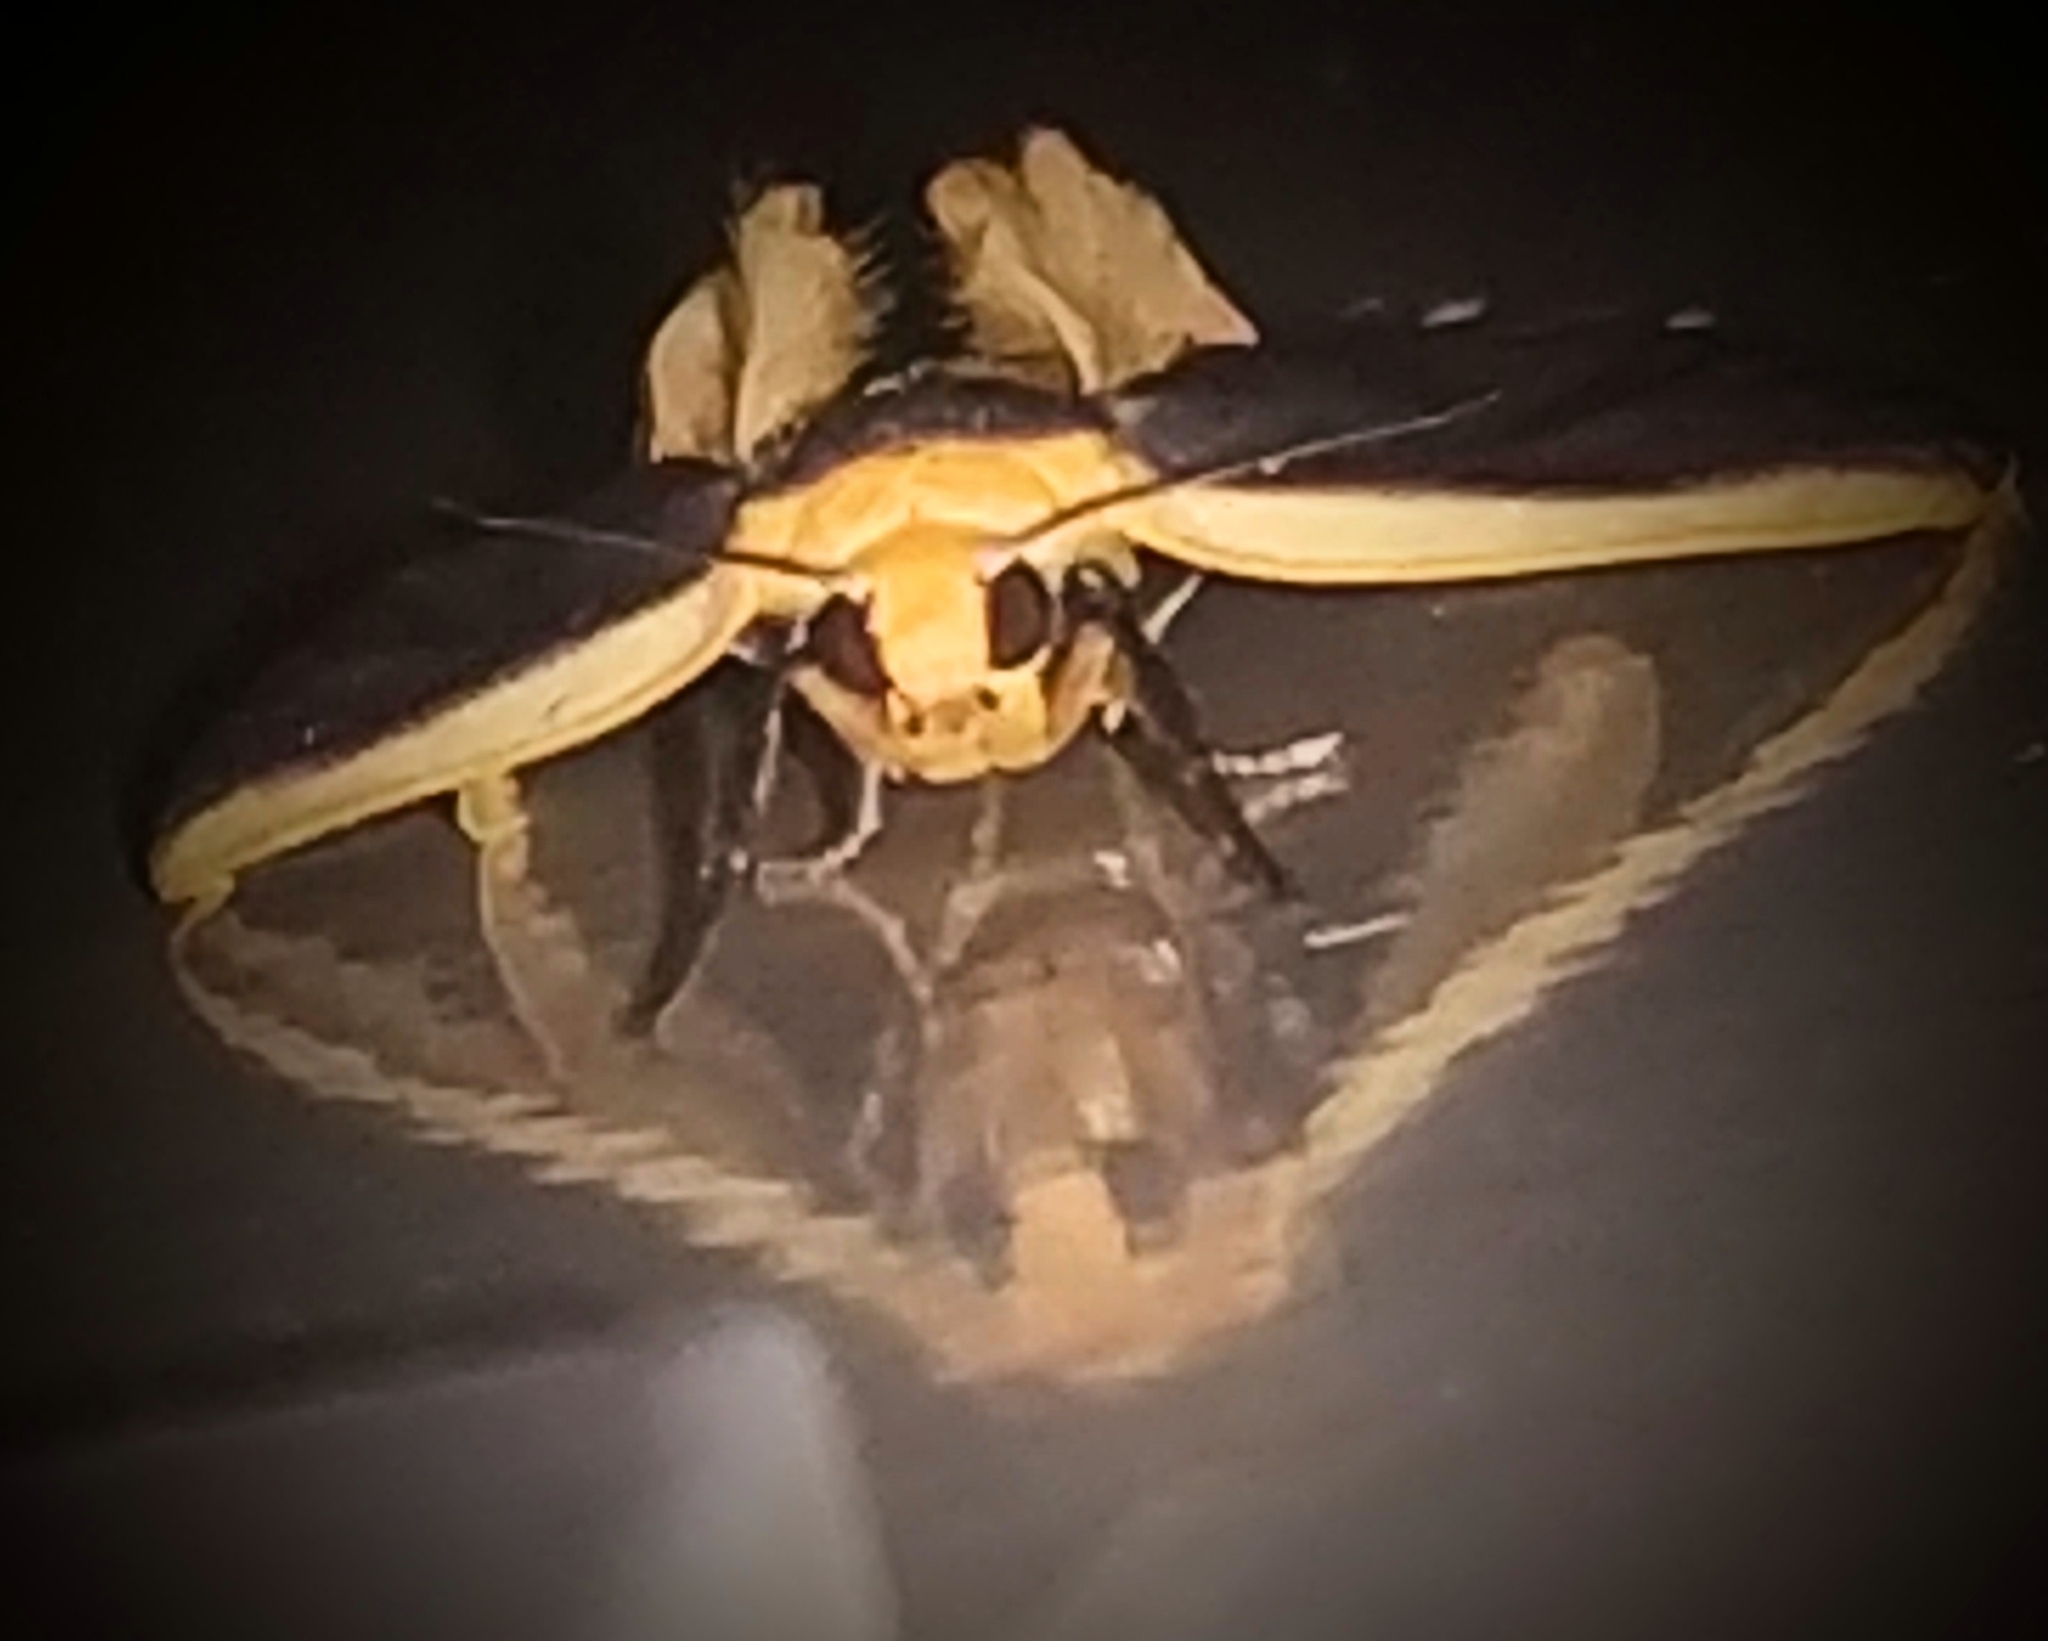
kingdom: Animalia
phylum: Arthropoda
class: Insecta
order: Lepidoptera
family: Erebidae
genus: Brunia
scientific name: Brunia antica
